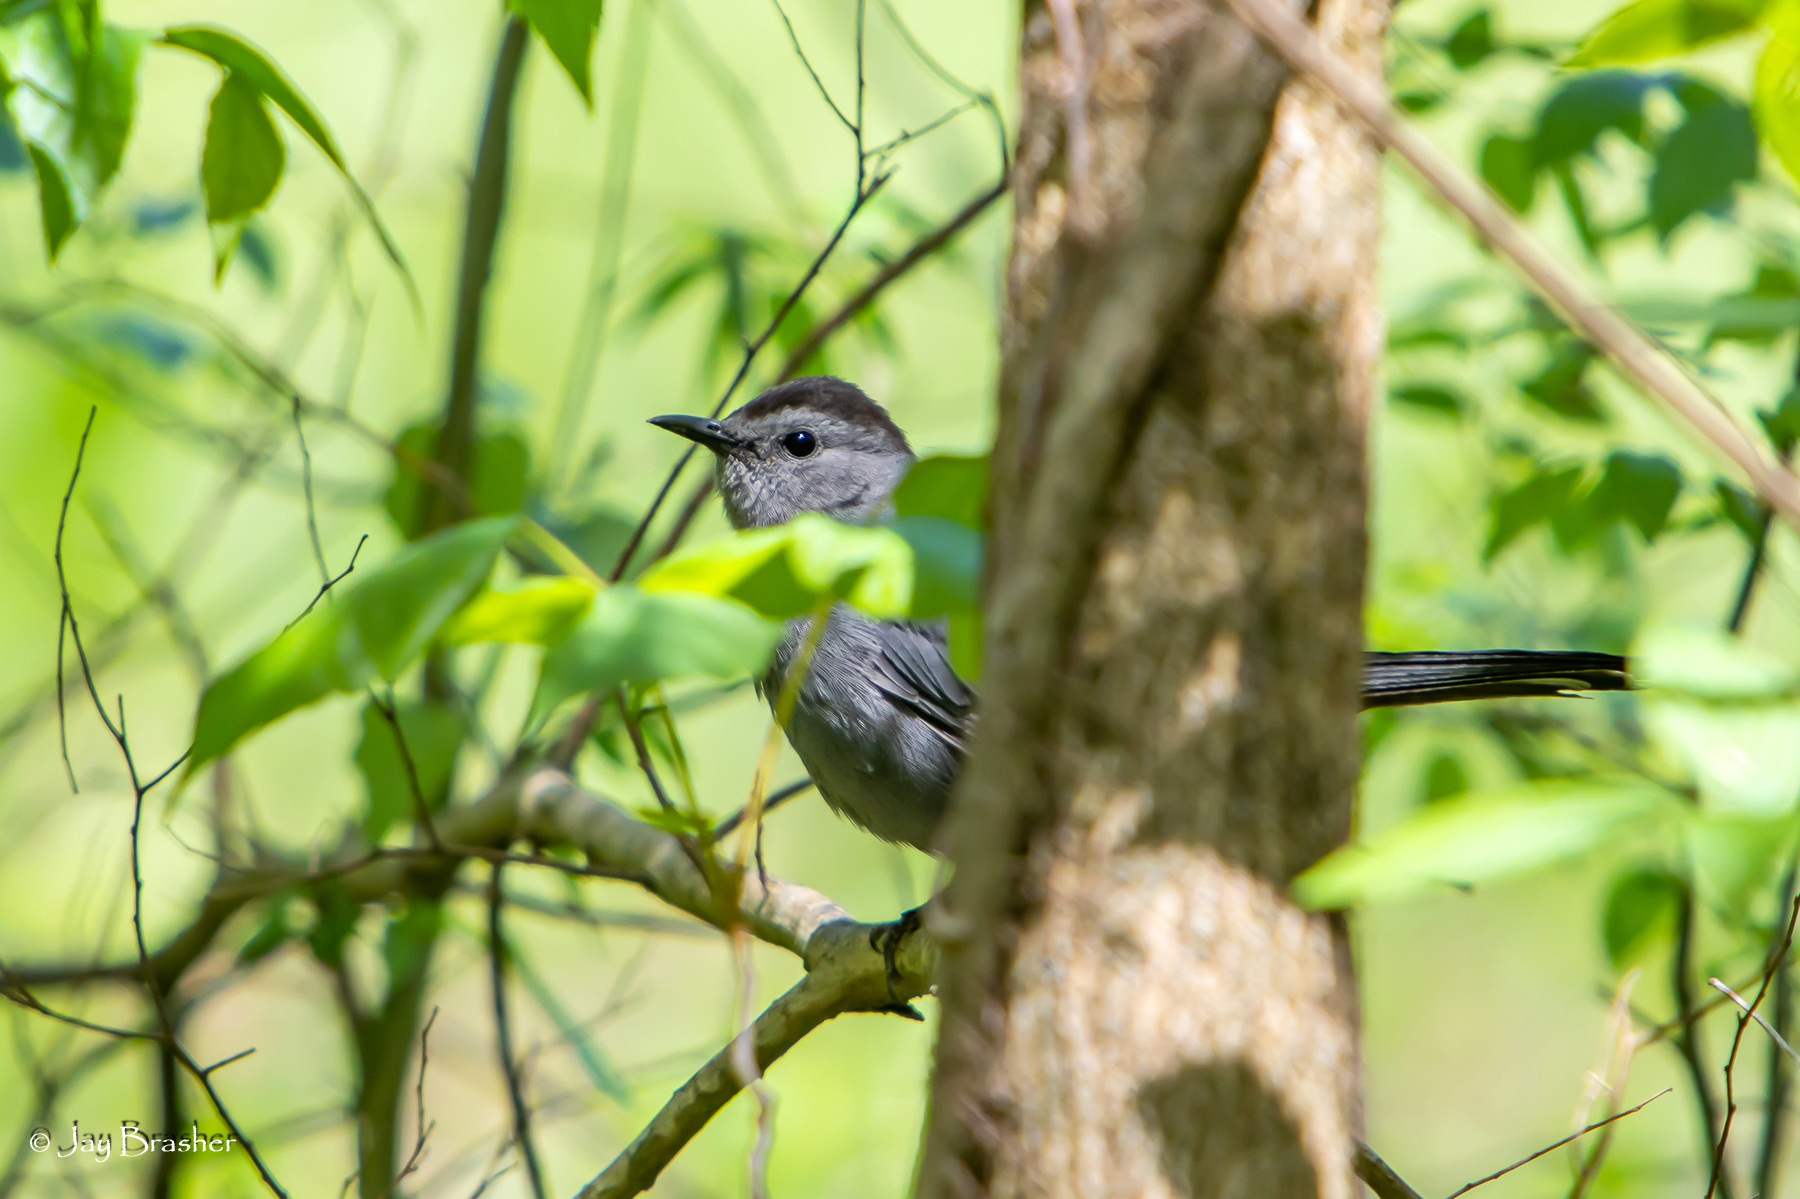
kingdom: Animalia
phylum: Chordata
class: Aves
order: Passeriformes
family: Mimidae
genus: Dumetella
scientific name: Dumetella carolinensis
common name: Gray catbird
